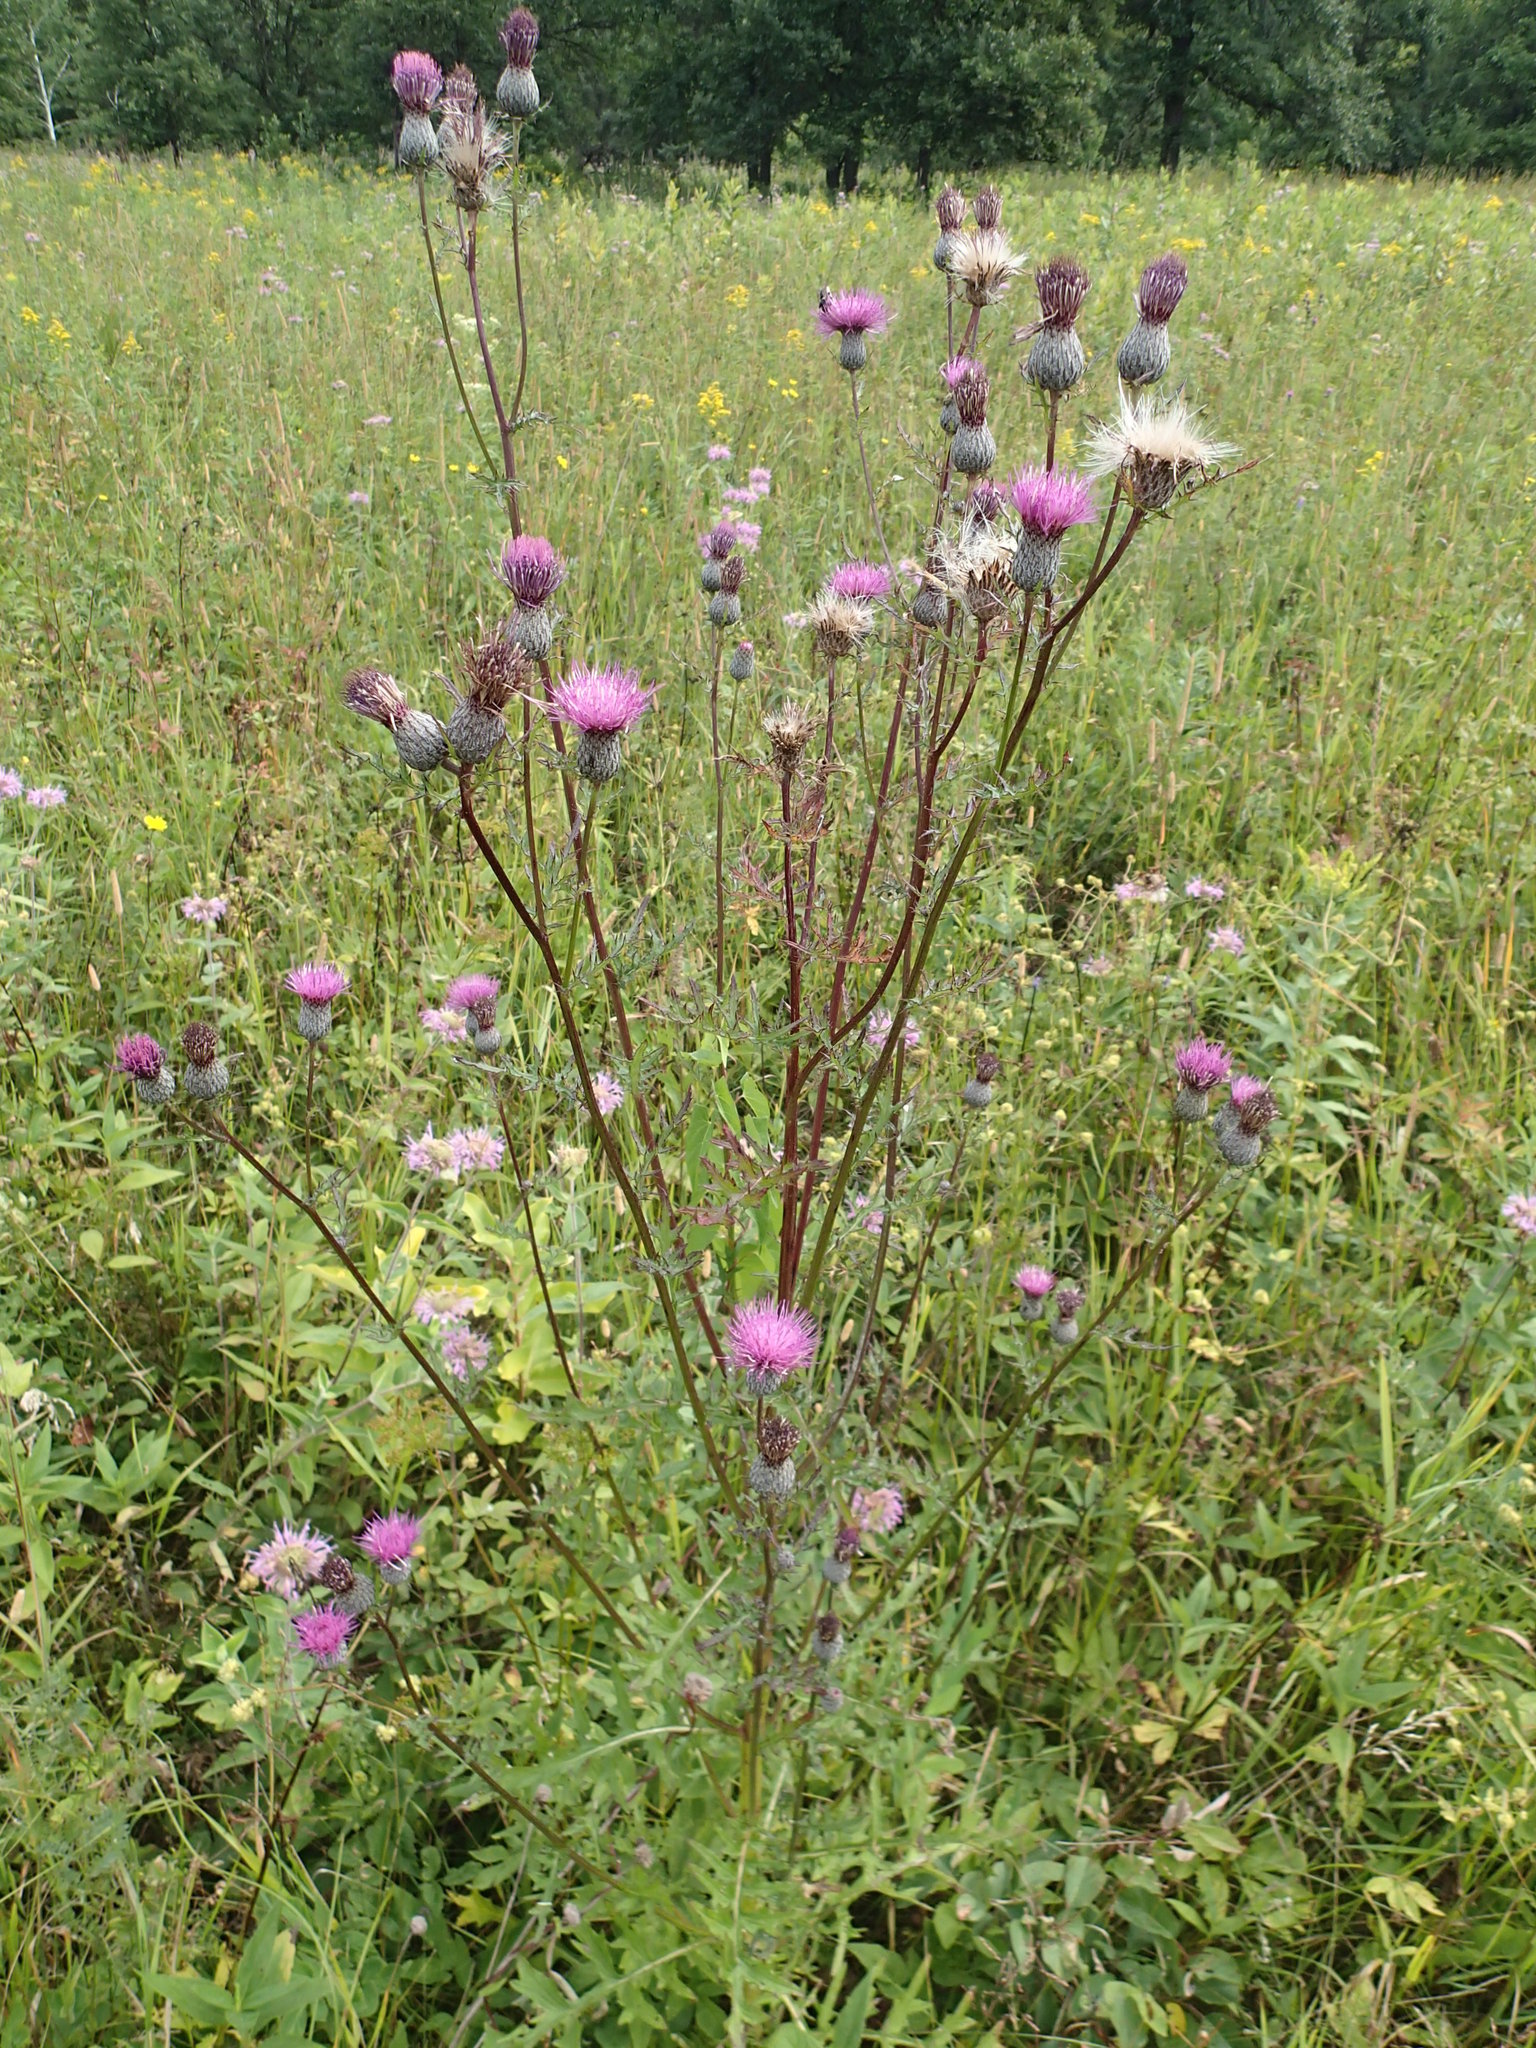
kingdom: Plantae
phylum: Tracheophyta
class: Magnoliopsida
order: Asterales
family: Asteraceae
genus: Cirsium
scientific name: Cirsium muticum
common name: Dunce-nettle
